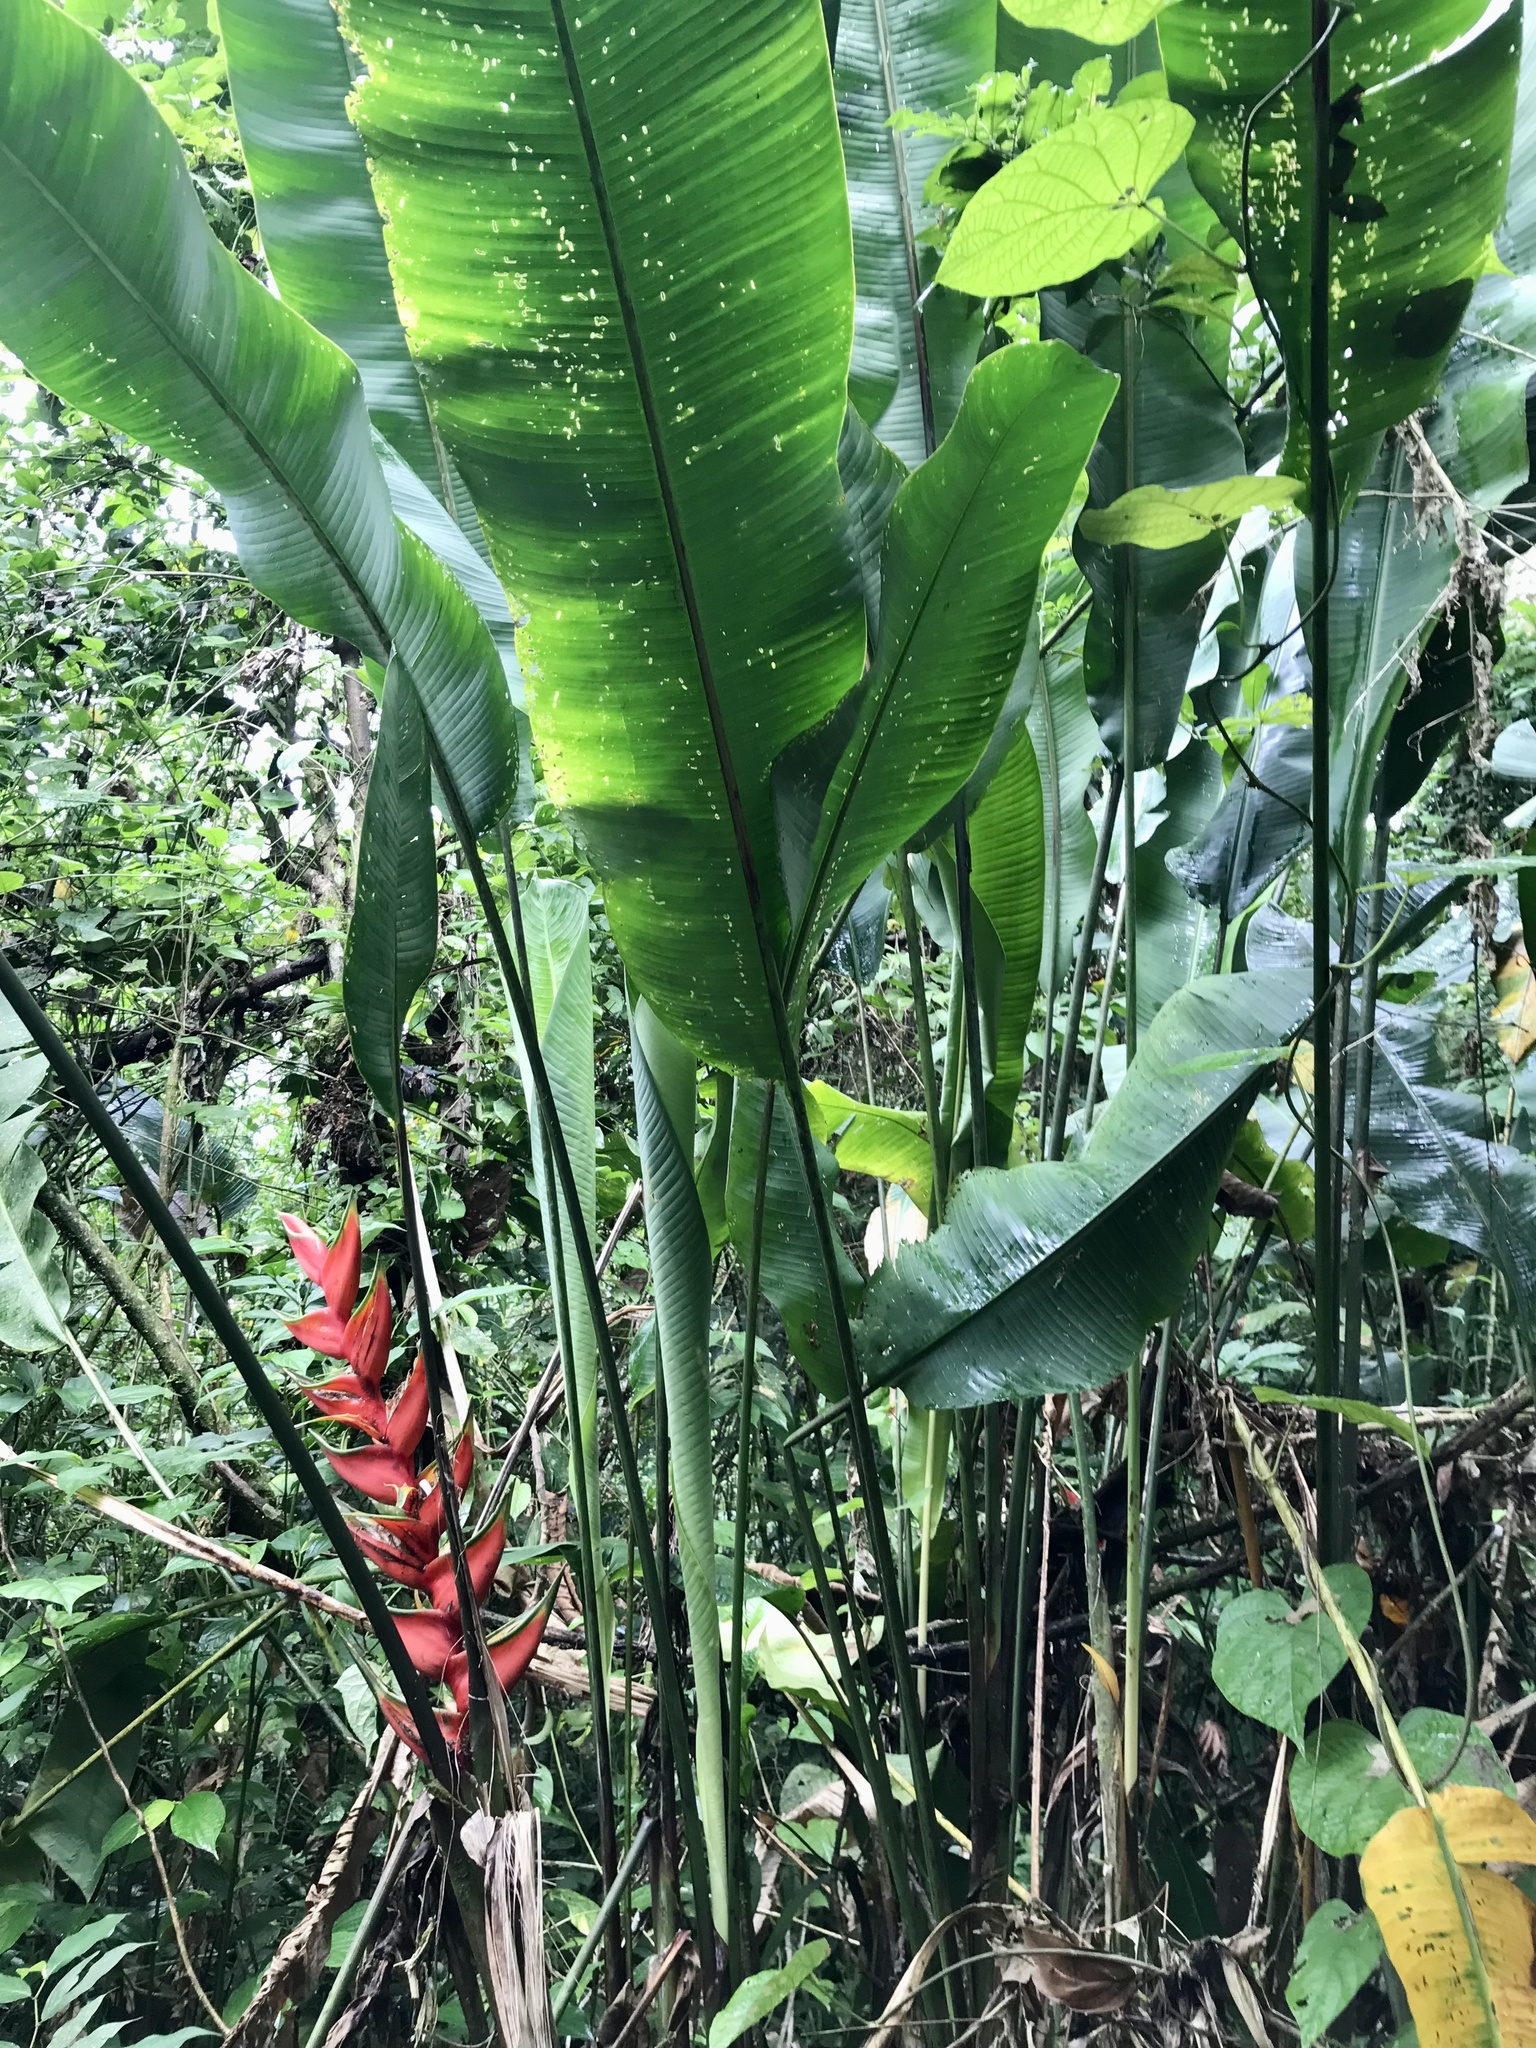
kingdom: Plantae
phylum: Tracheophyta
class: Liliopsida
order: Zingiberales
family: Heliconiaceae
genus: Heliconia
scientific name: Heliconia bihai
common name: Macaw flower
